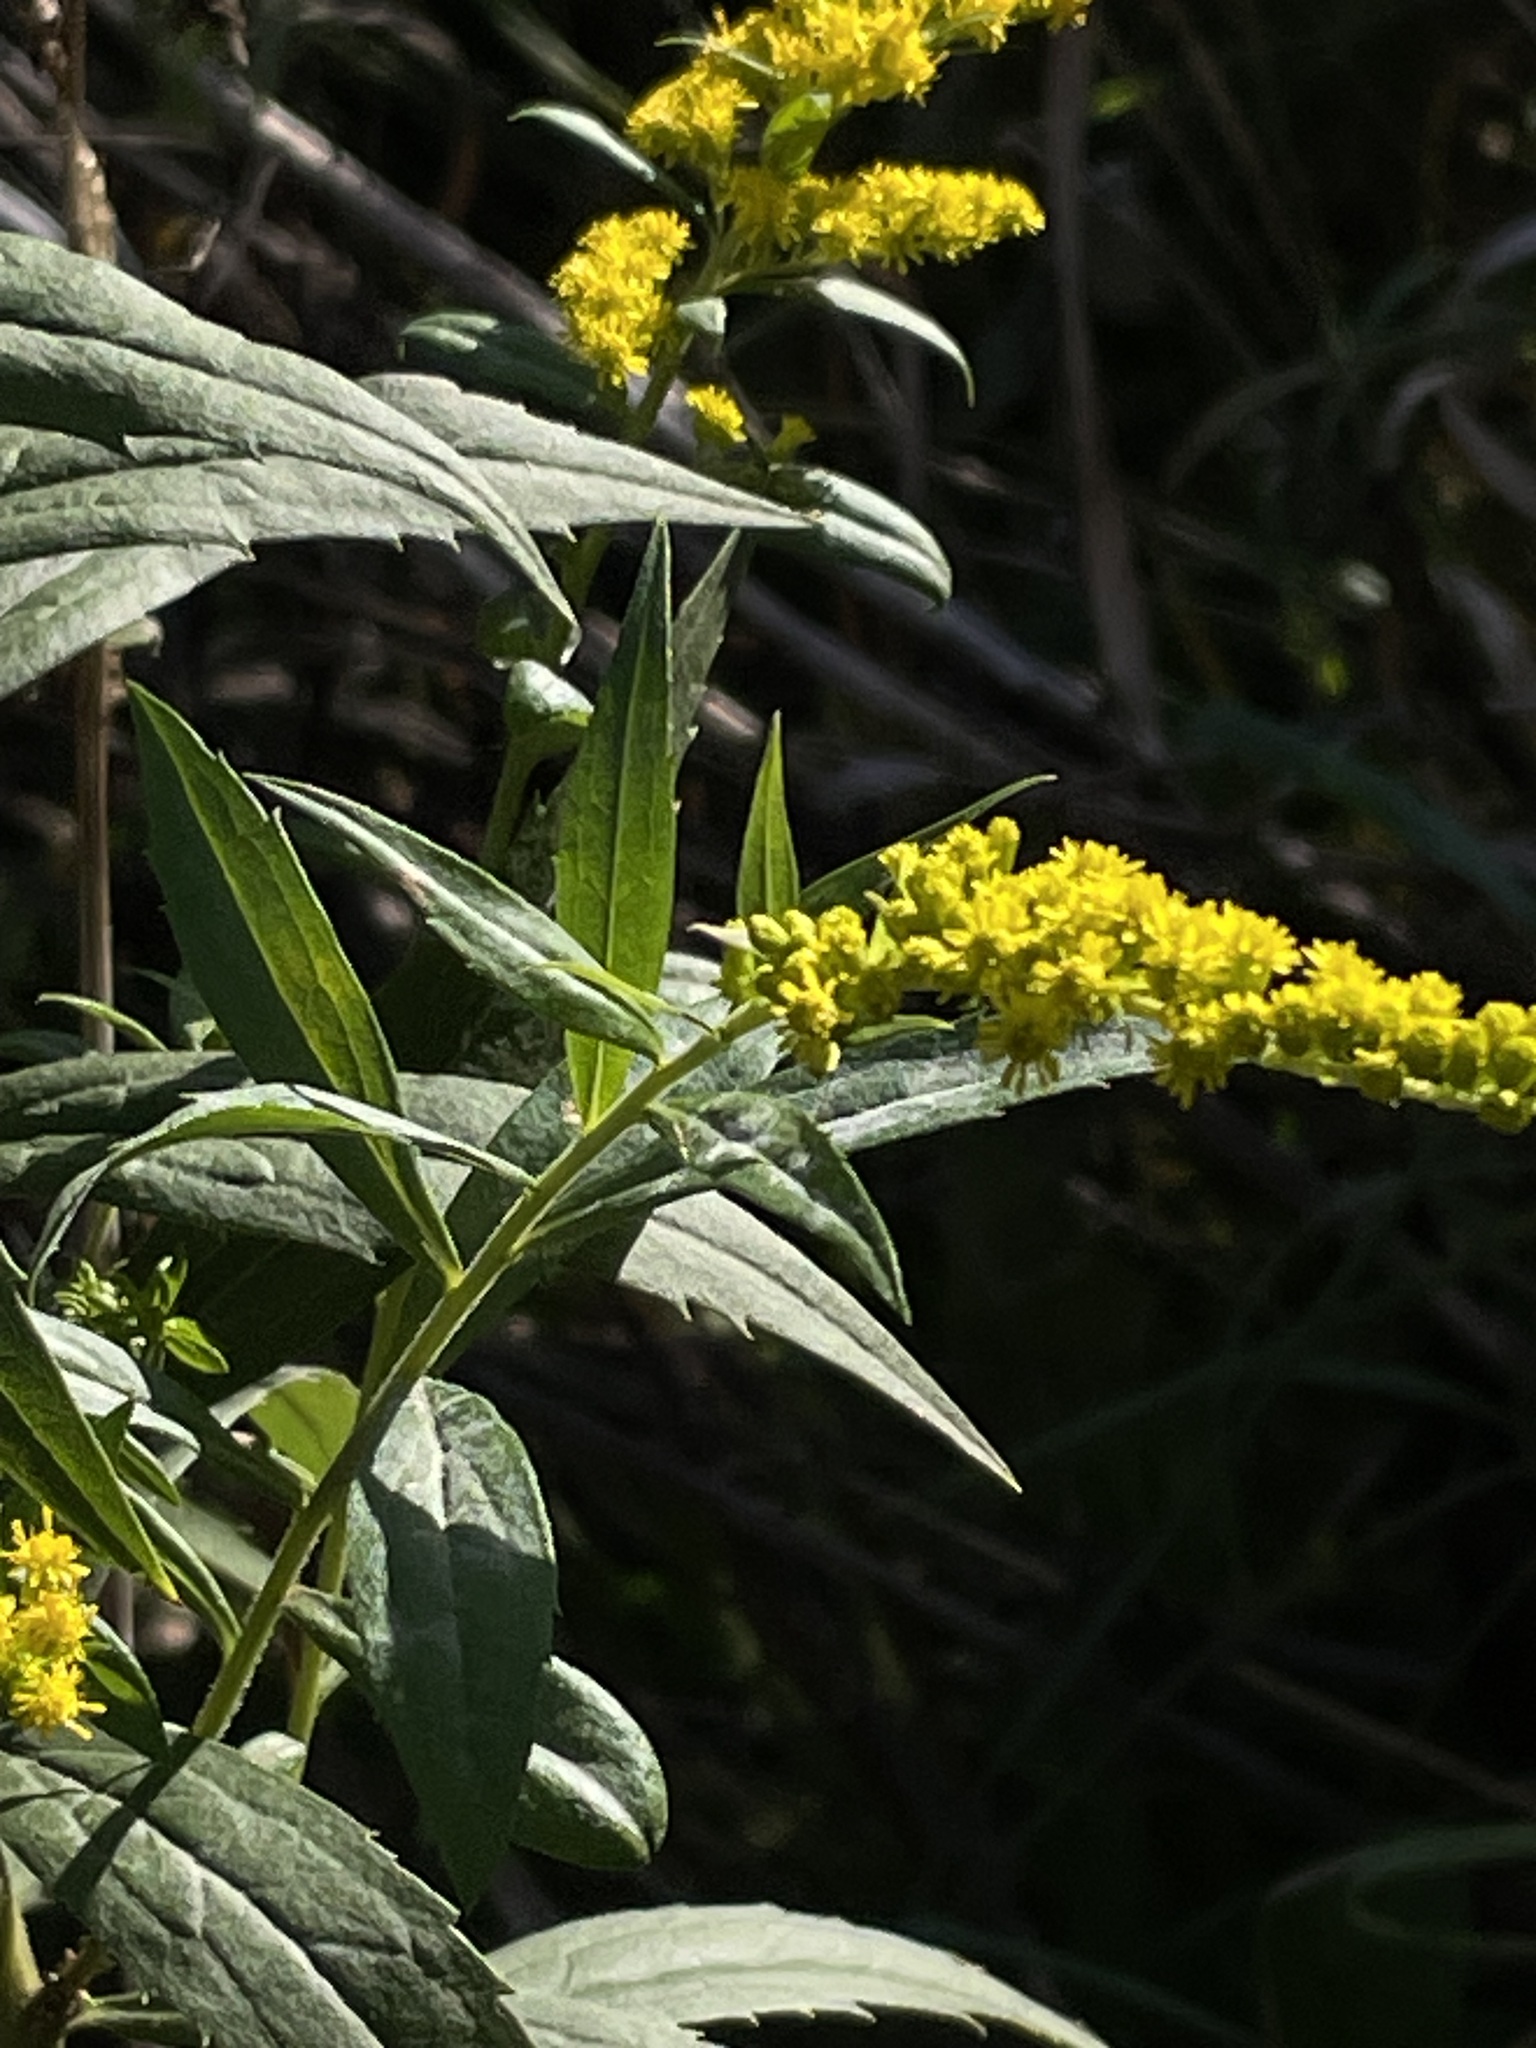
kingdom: Plantae
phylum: Tracheophyta
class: Magnoliopsida
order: Asterales
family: Asteraceae
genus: Solidago
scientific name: Solidago canadensis
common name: Canada goldenrod
